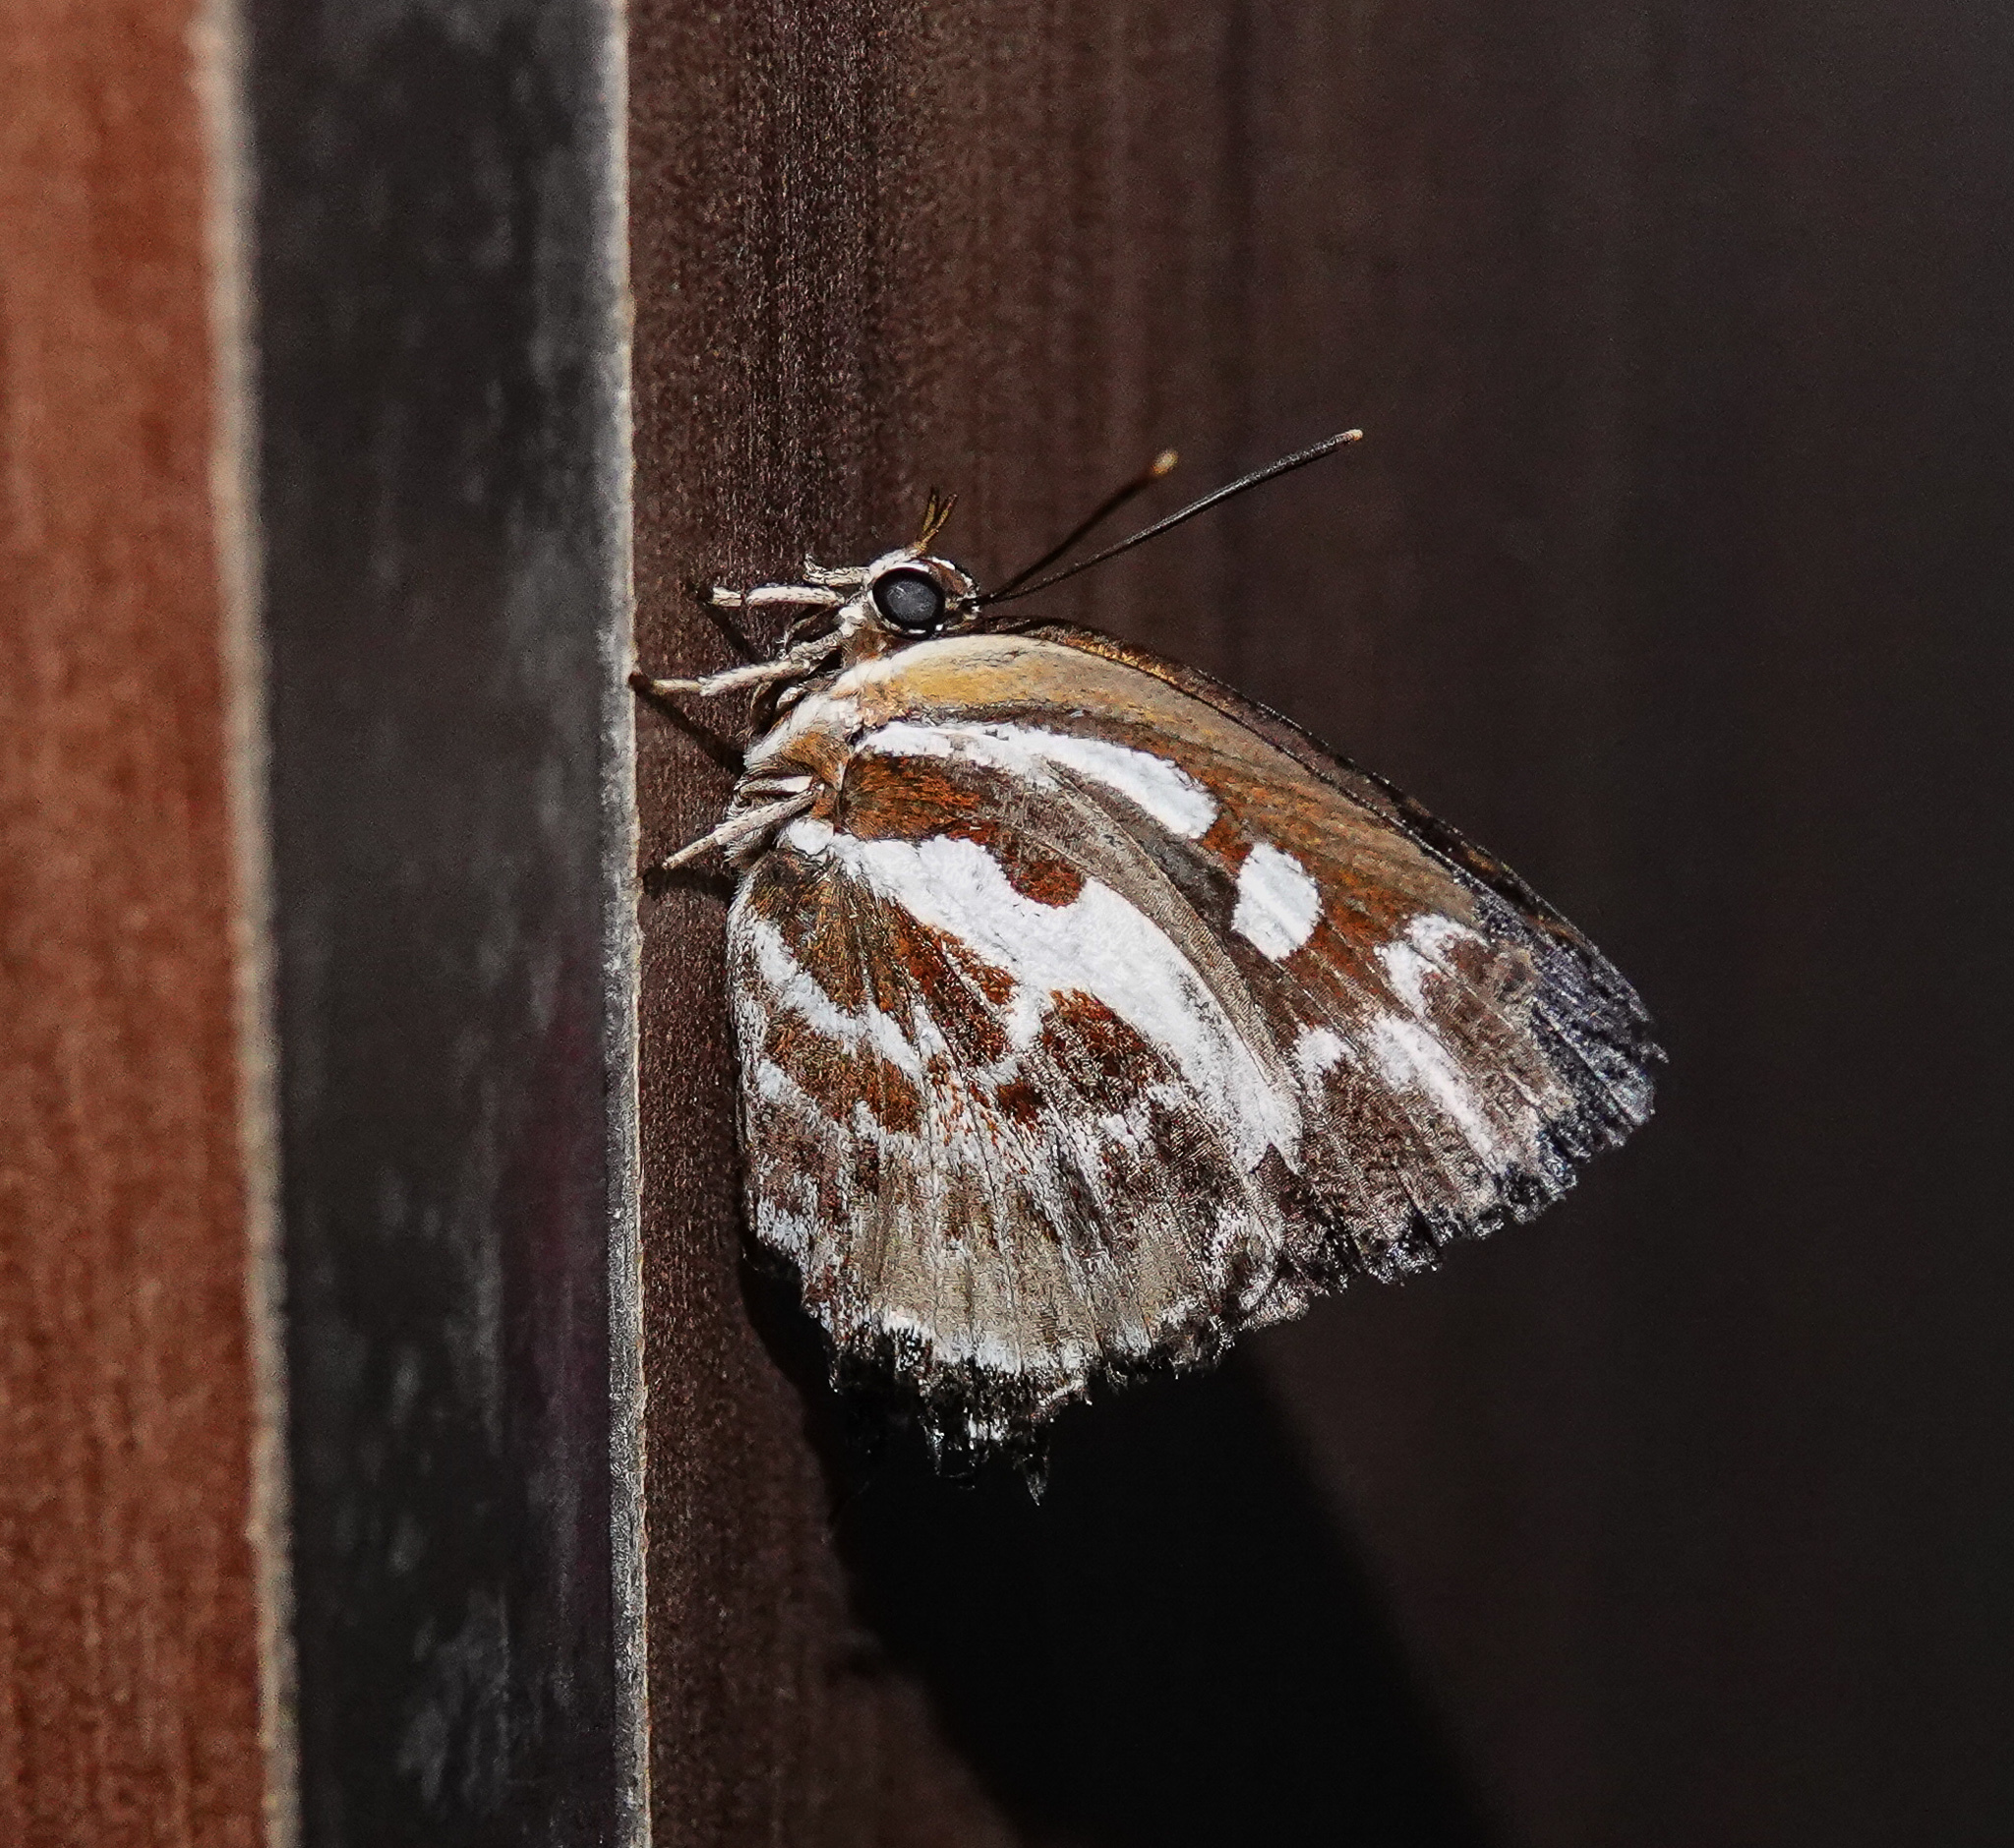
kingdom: Animalia
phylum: Arthropoda
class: Insecta
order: Lepidoptera
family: Lycaenidae
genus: Iraota
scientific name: Iraota rochana
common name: Scarce silverstreak blue
